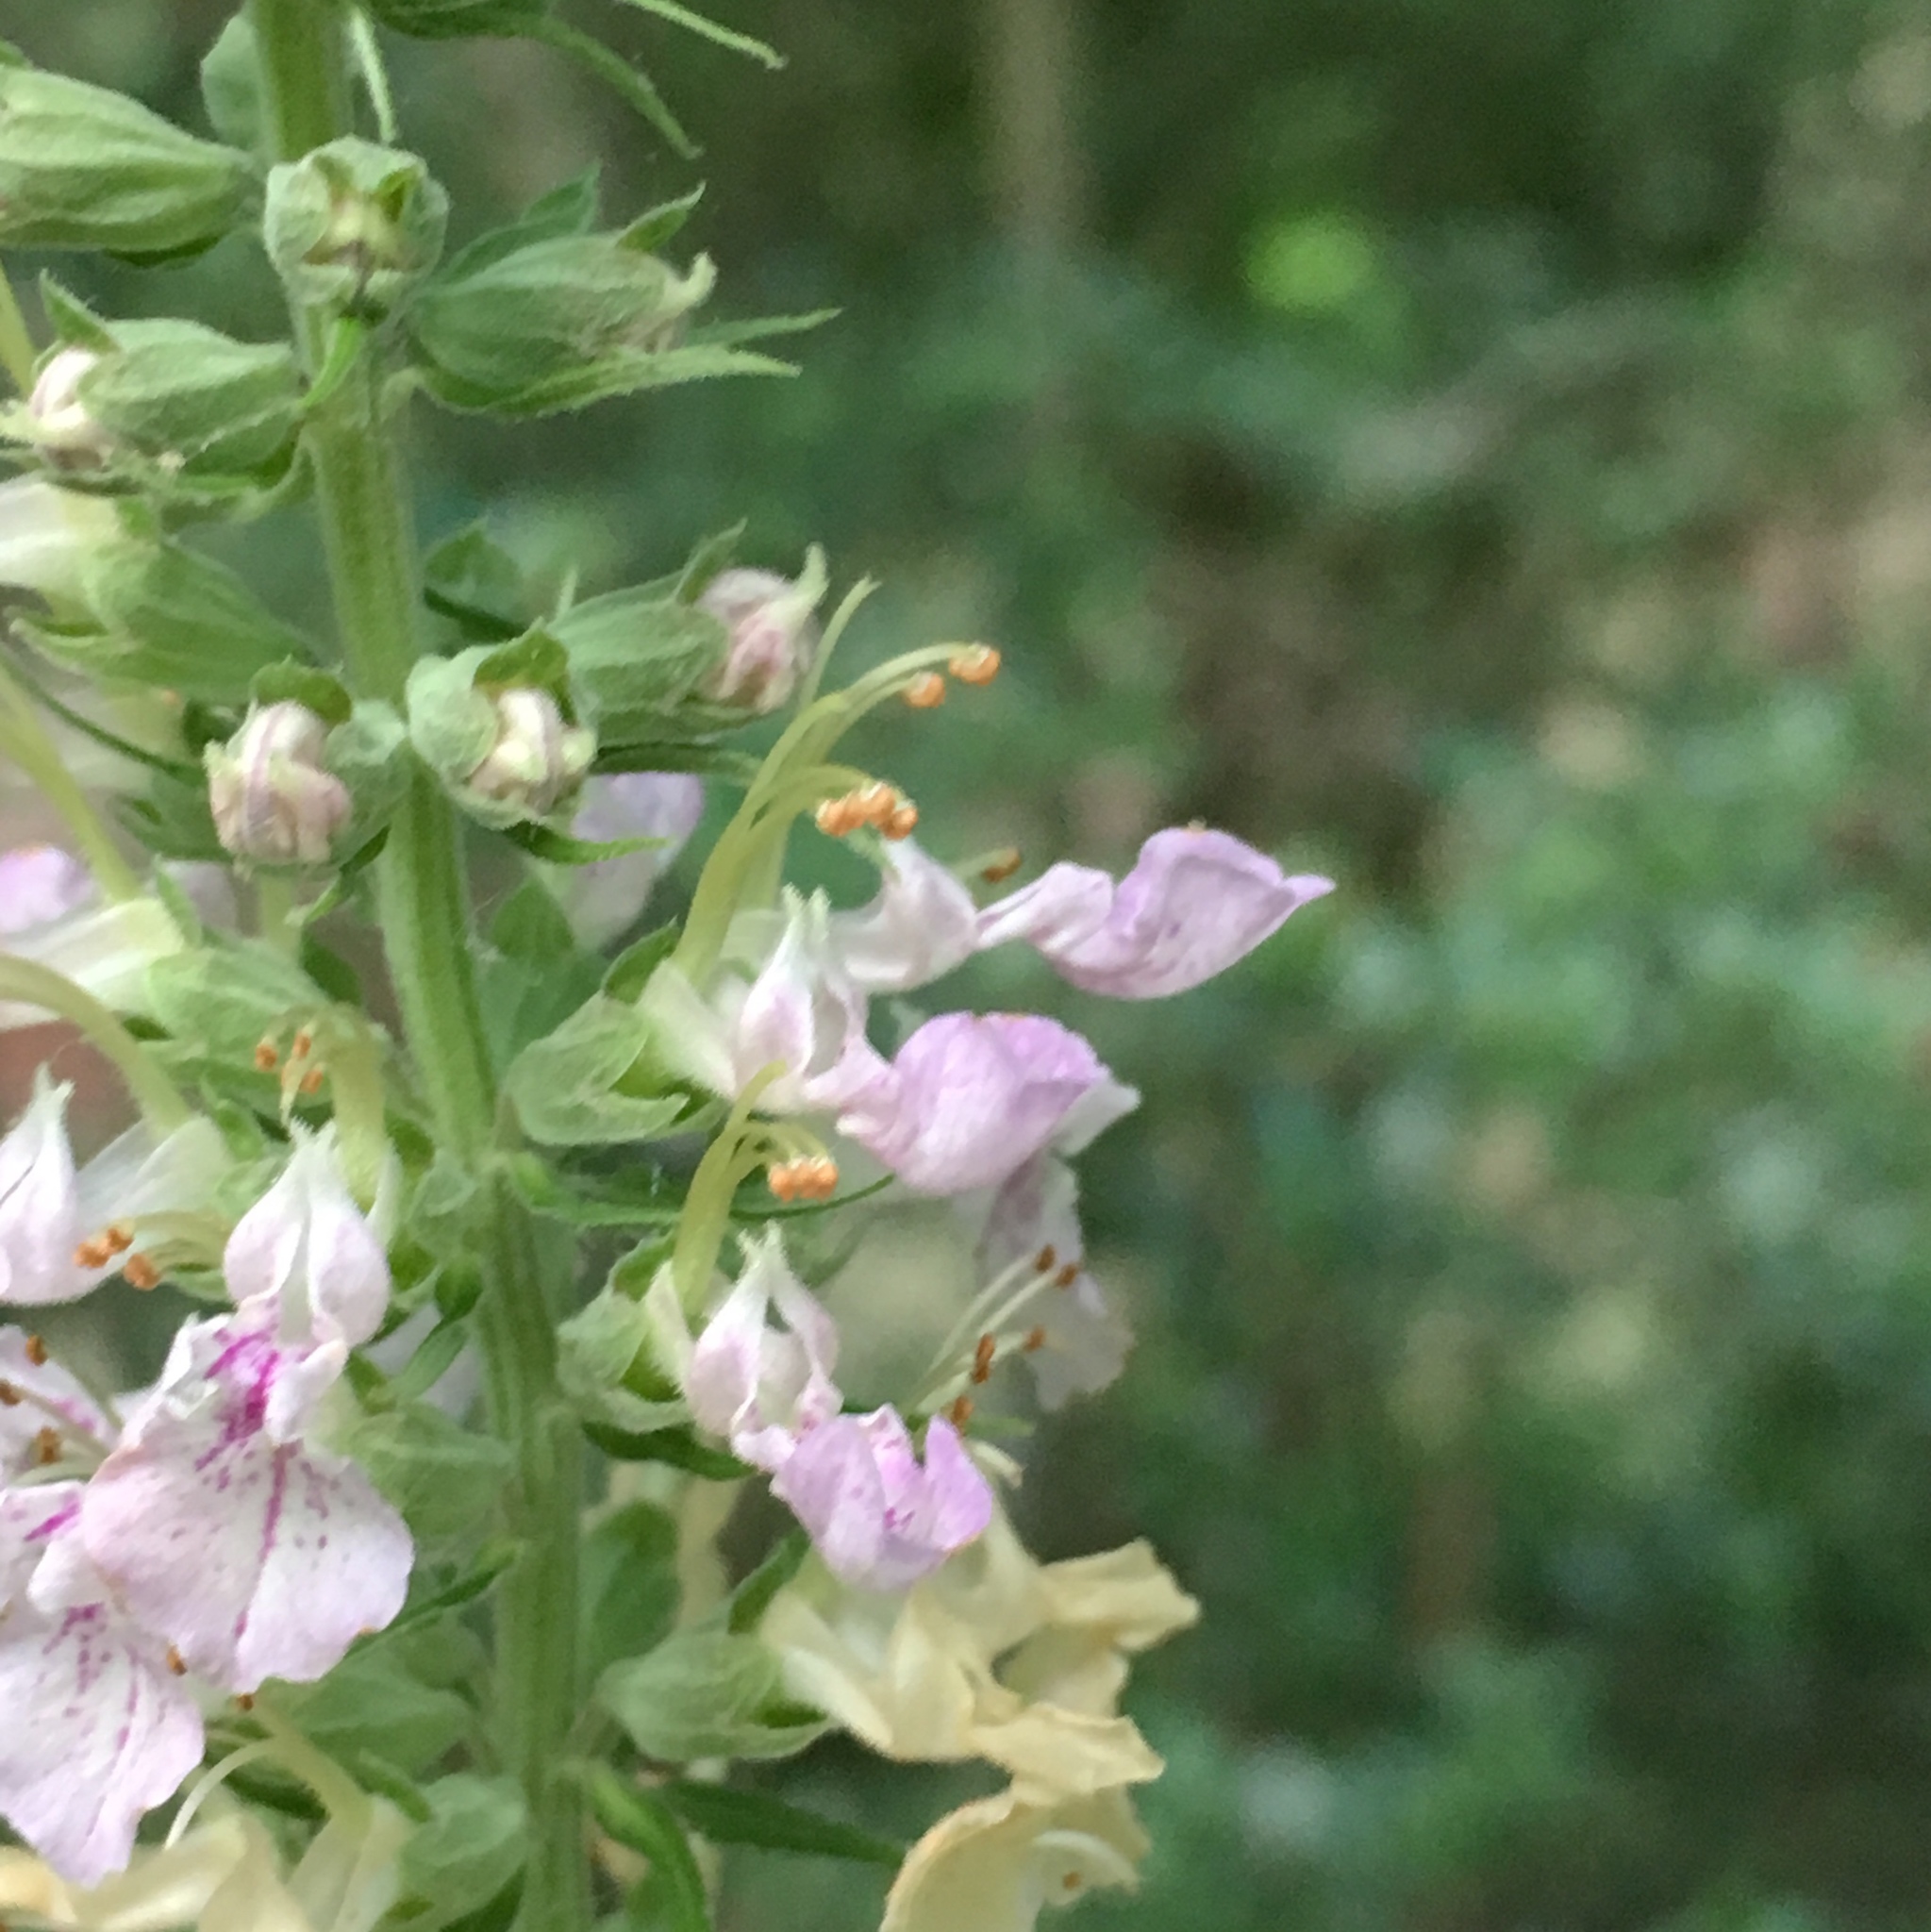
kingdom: Plantae
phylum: Tracheophyta
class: Magnoliopsida
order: Lamiales
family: Lamiaceae
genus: Teucrium
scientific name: Teucrium canadense
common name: American germander
